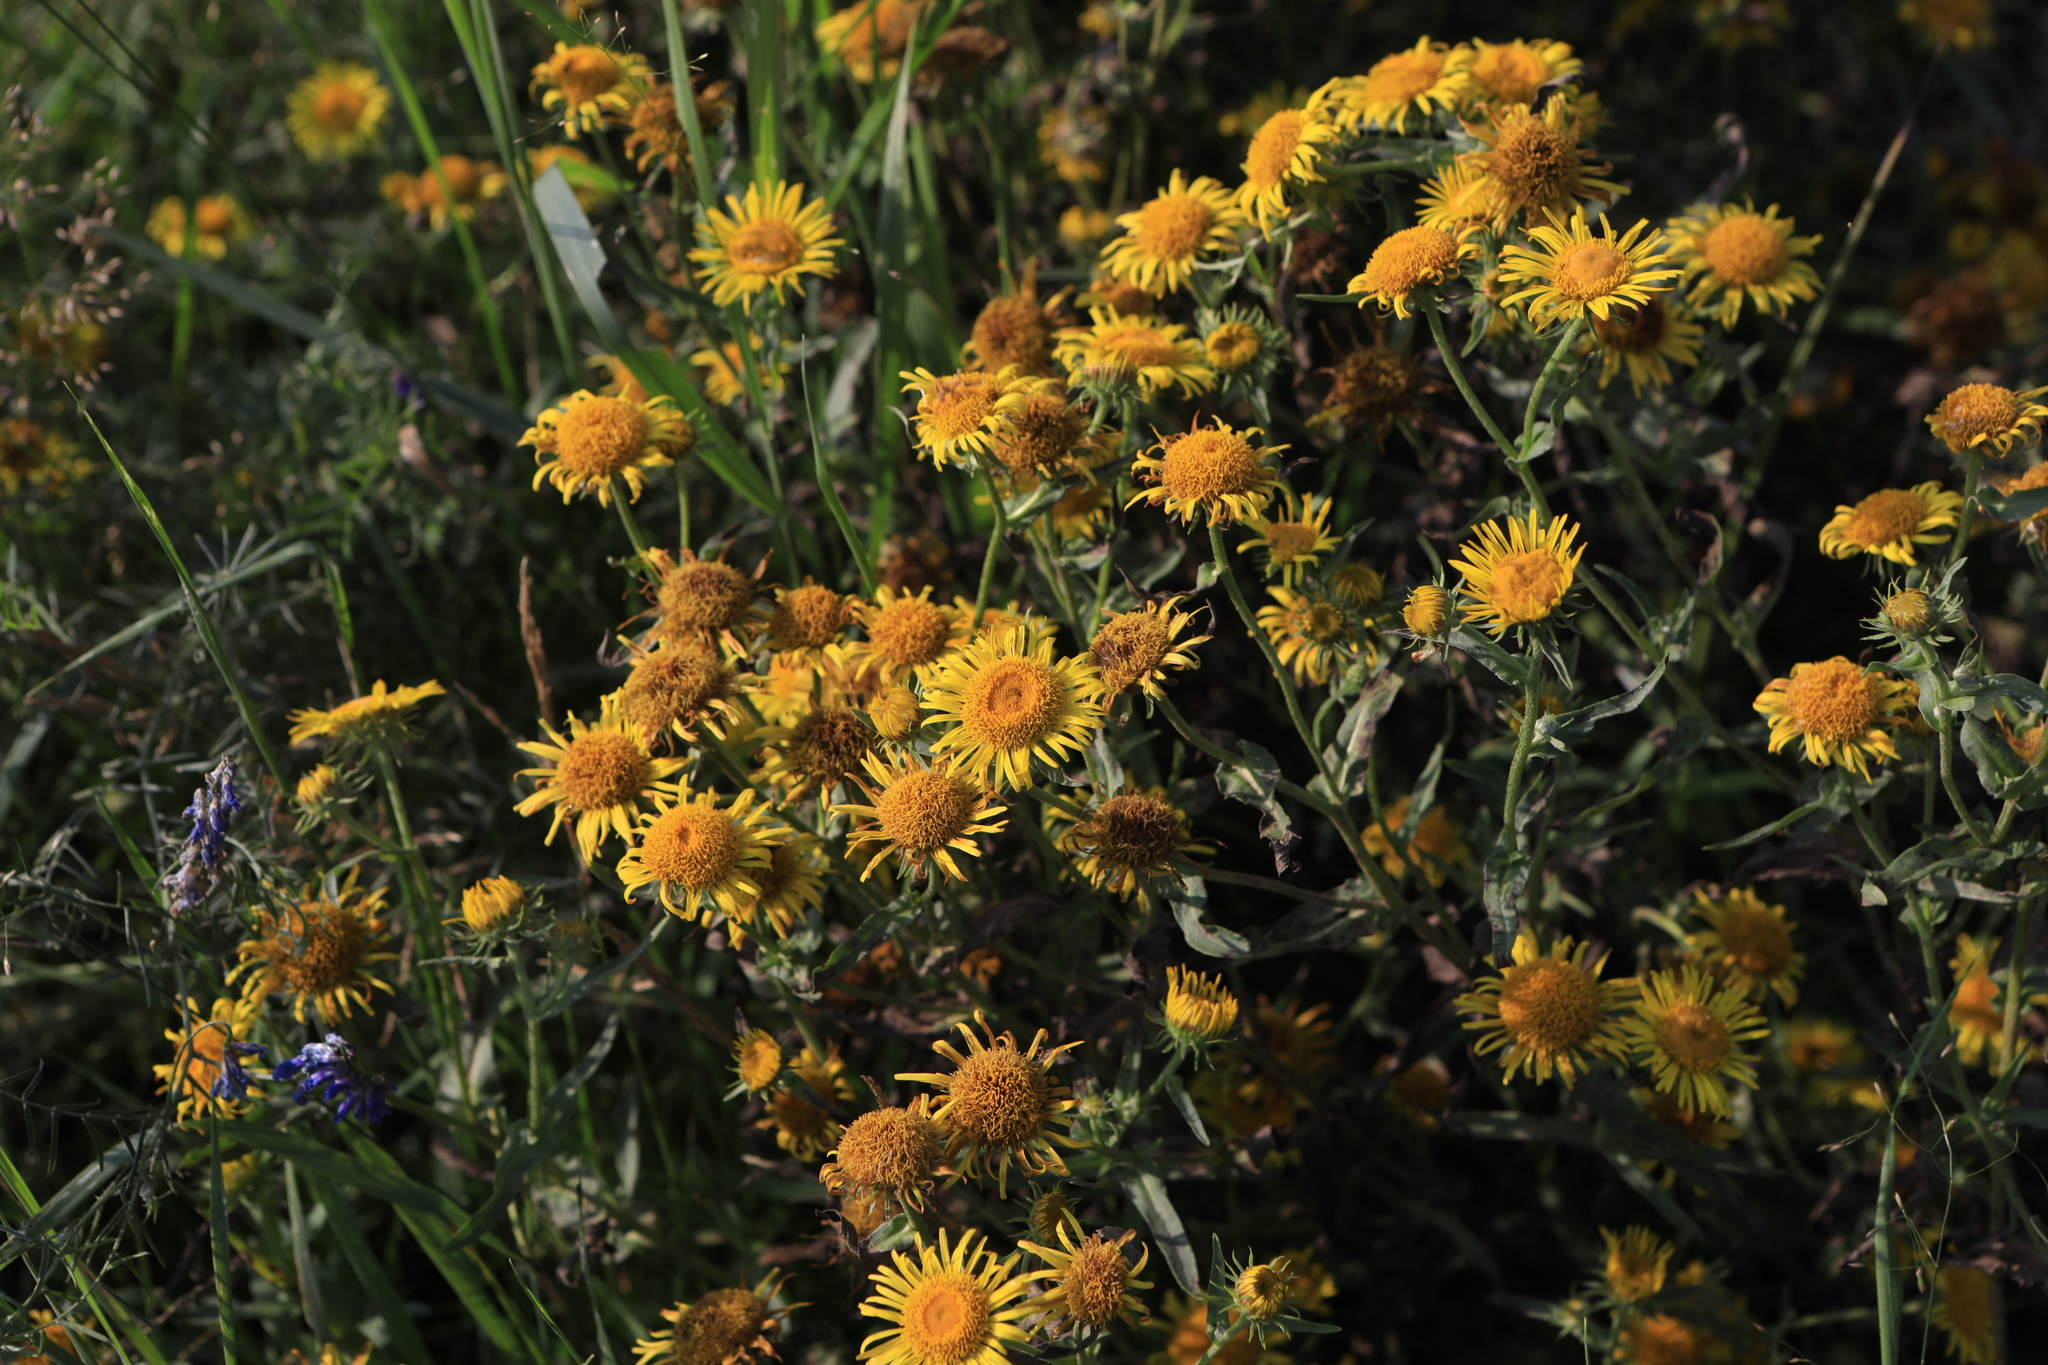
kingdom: Plantae
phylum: Tracheophyta
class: Magnoliopsida
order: Asterales
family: Asteraceae
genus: Pentanema
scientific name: Pentanema britannicum
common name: British elecampane
